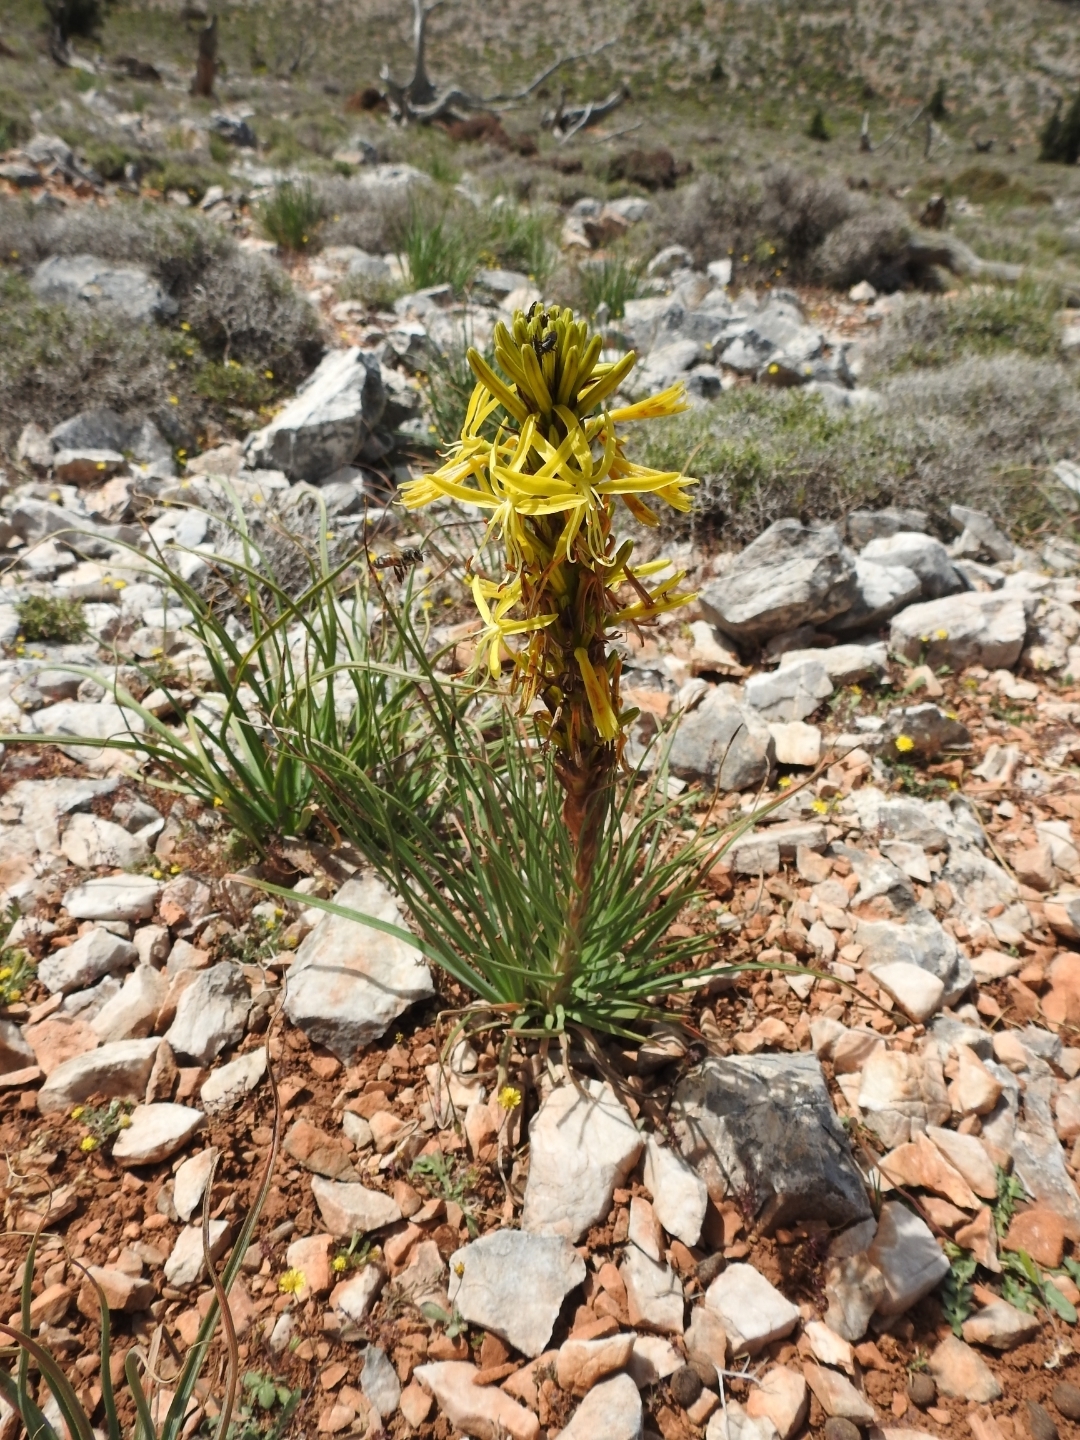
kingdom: Plantae
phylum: Tracheophyta
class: Liliopsida
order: Asparagales
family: Asphodelaceae
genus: Asphodeline
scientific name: Asphodeline lutea
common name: Yellow asphodel
